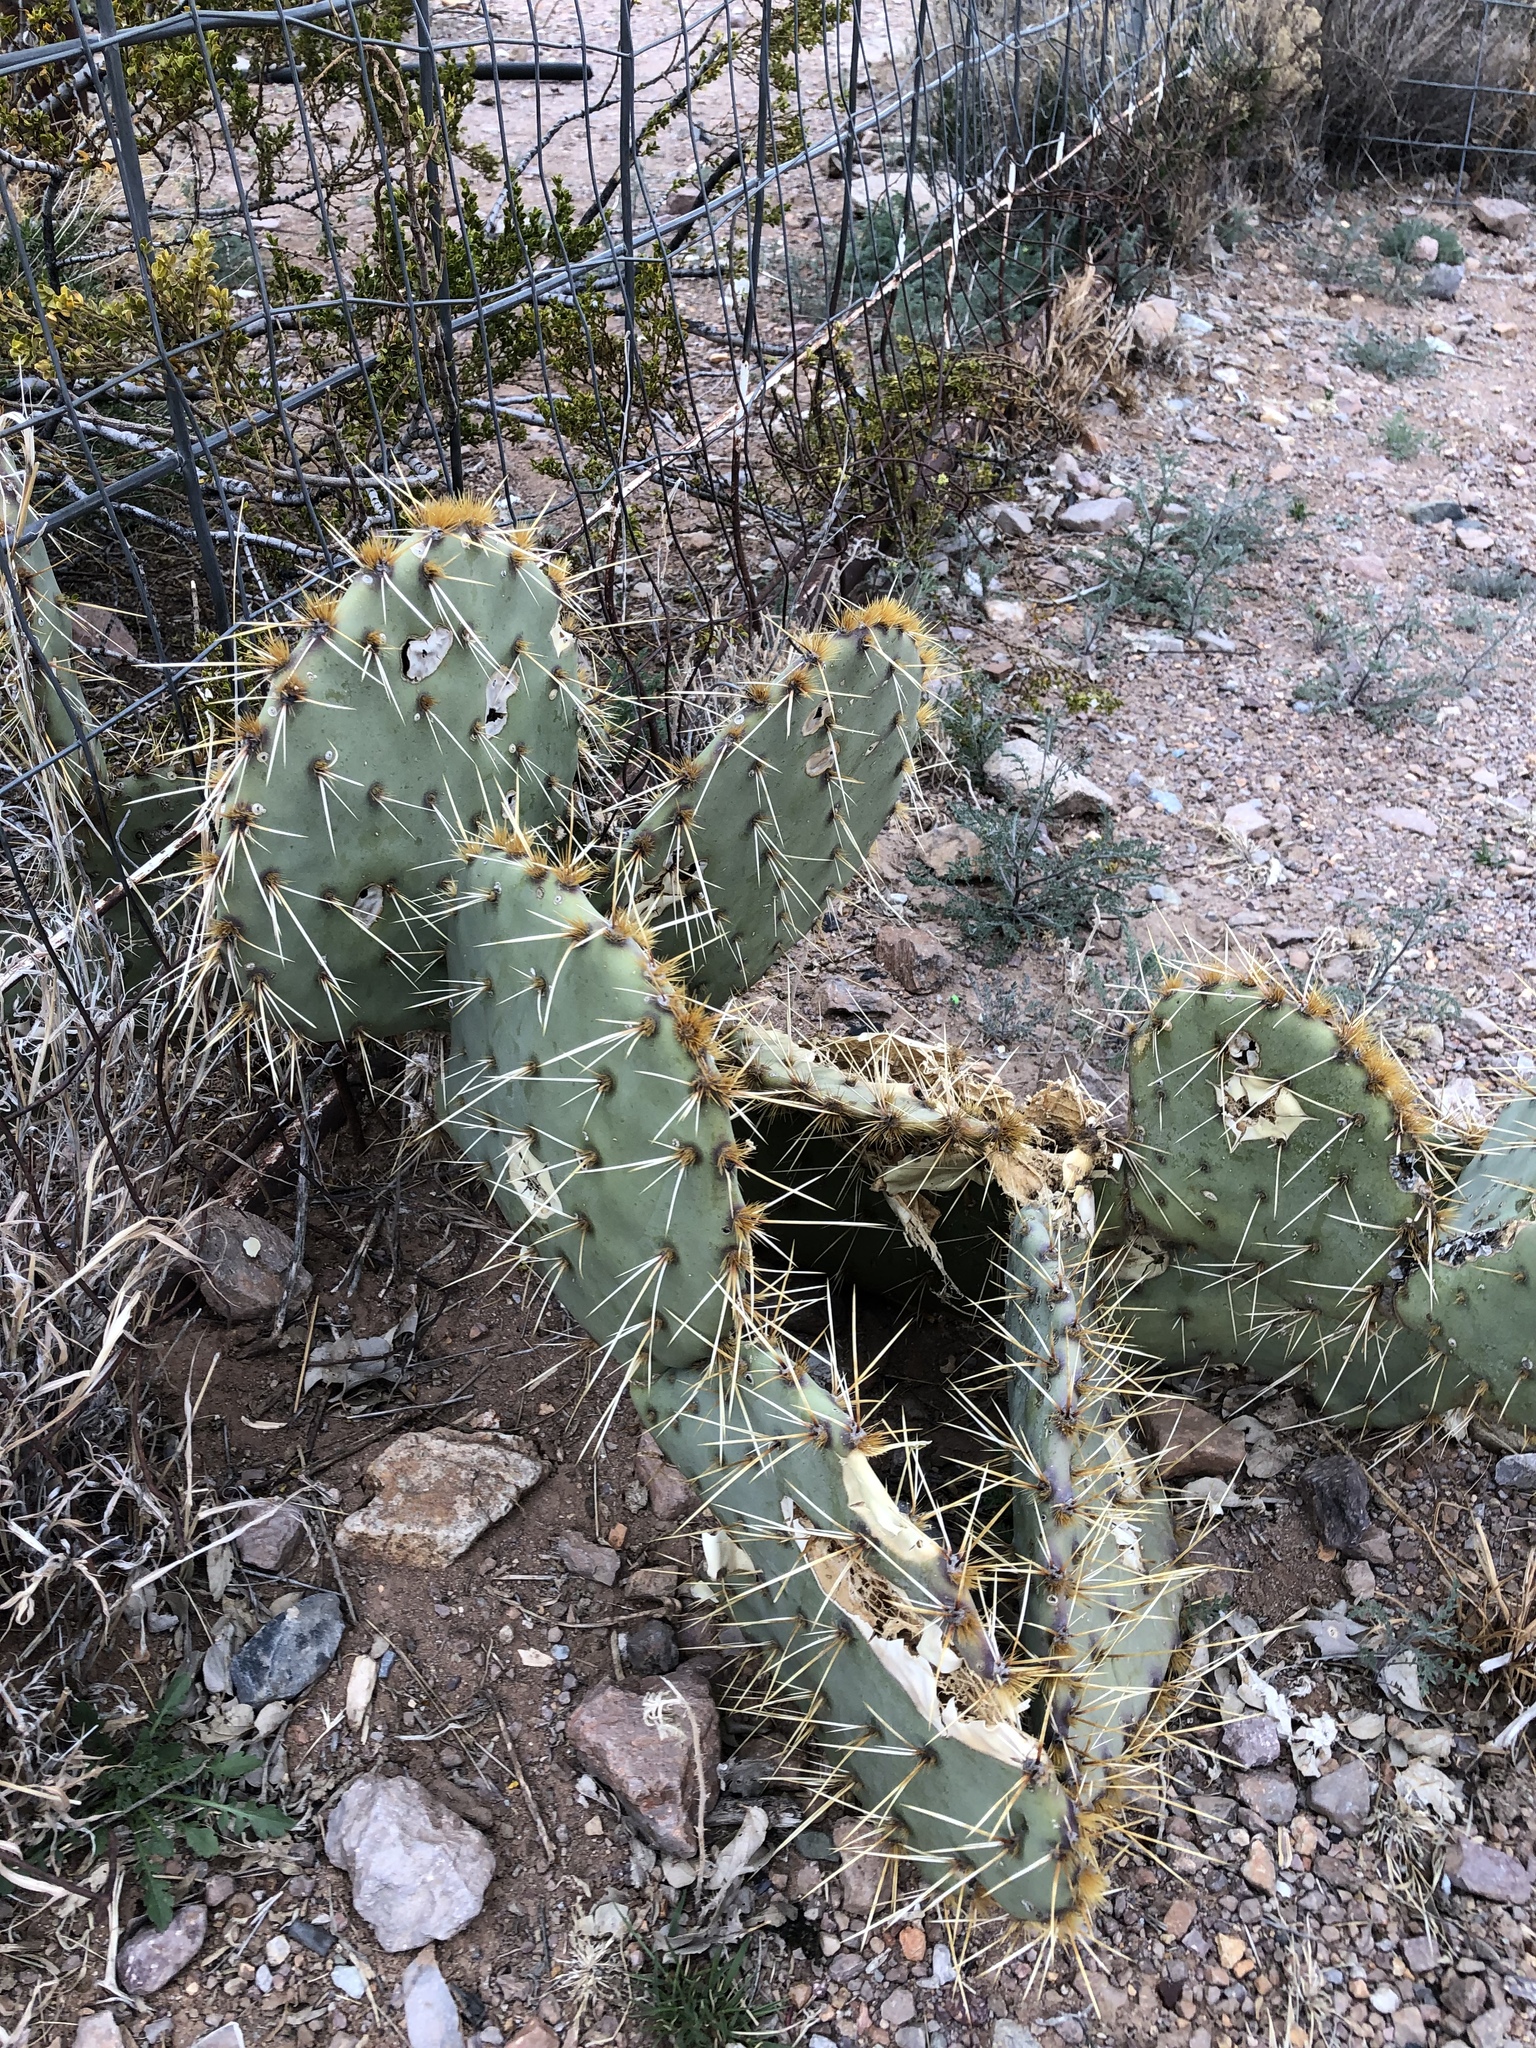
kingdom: Plantae
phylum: Tracheophyta
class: Magnoliopsida
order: Caryophyllales
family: Cactaceae
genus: Opuntia
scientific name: Opuntia engelmannii
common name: Cactus-apple
